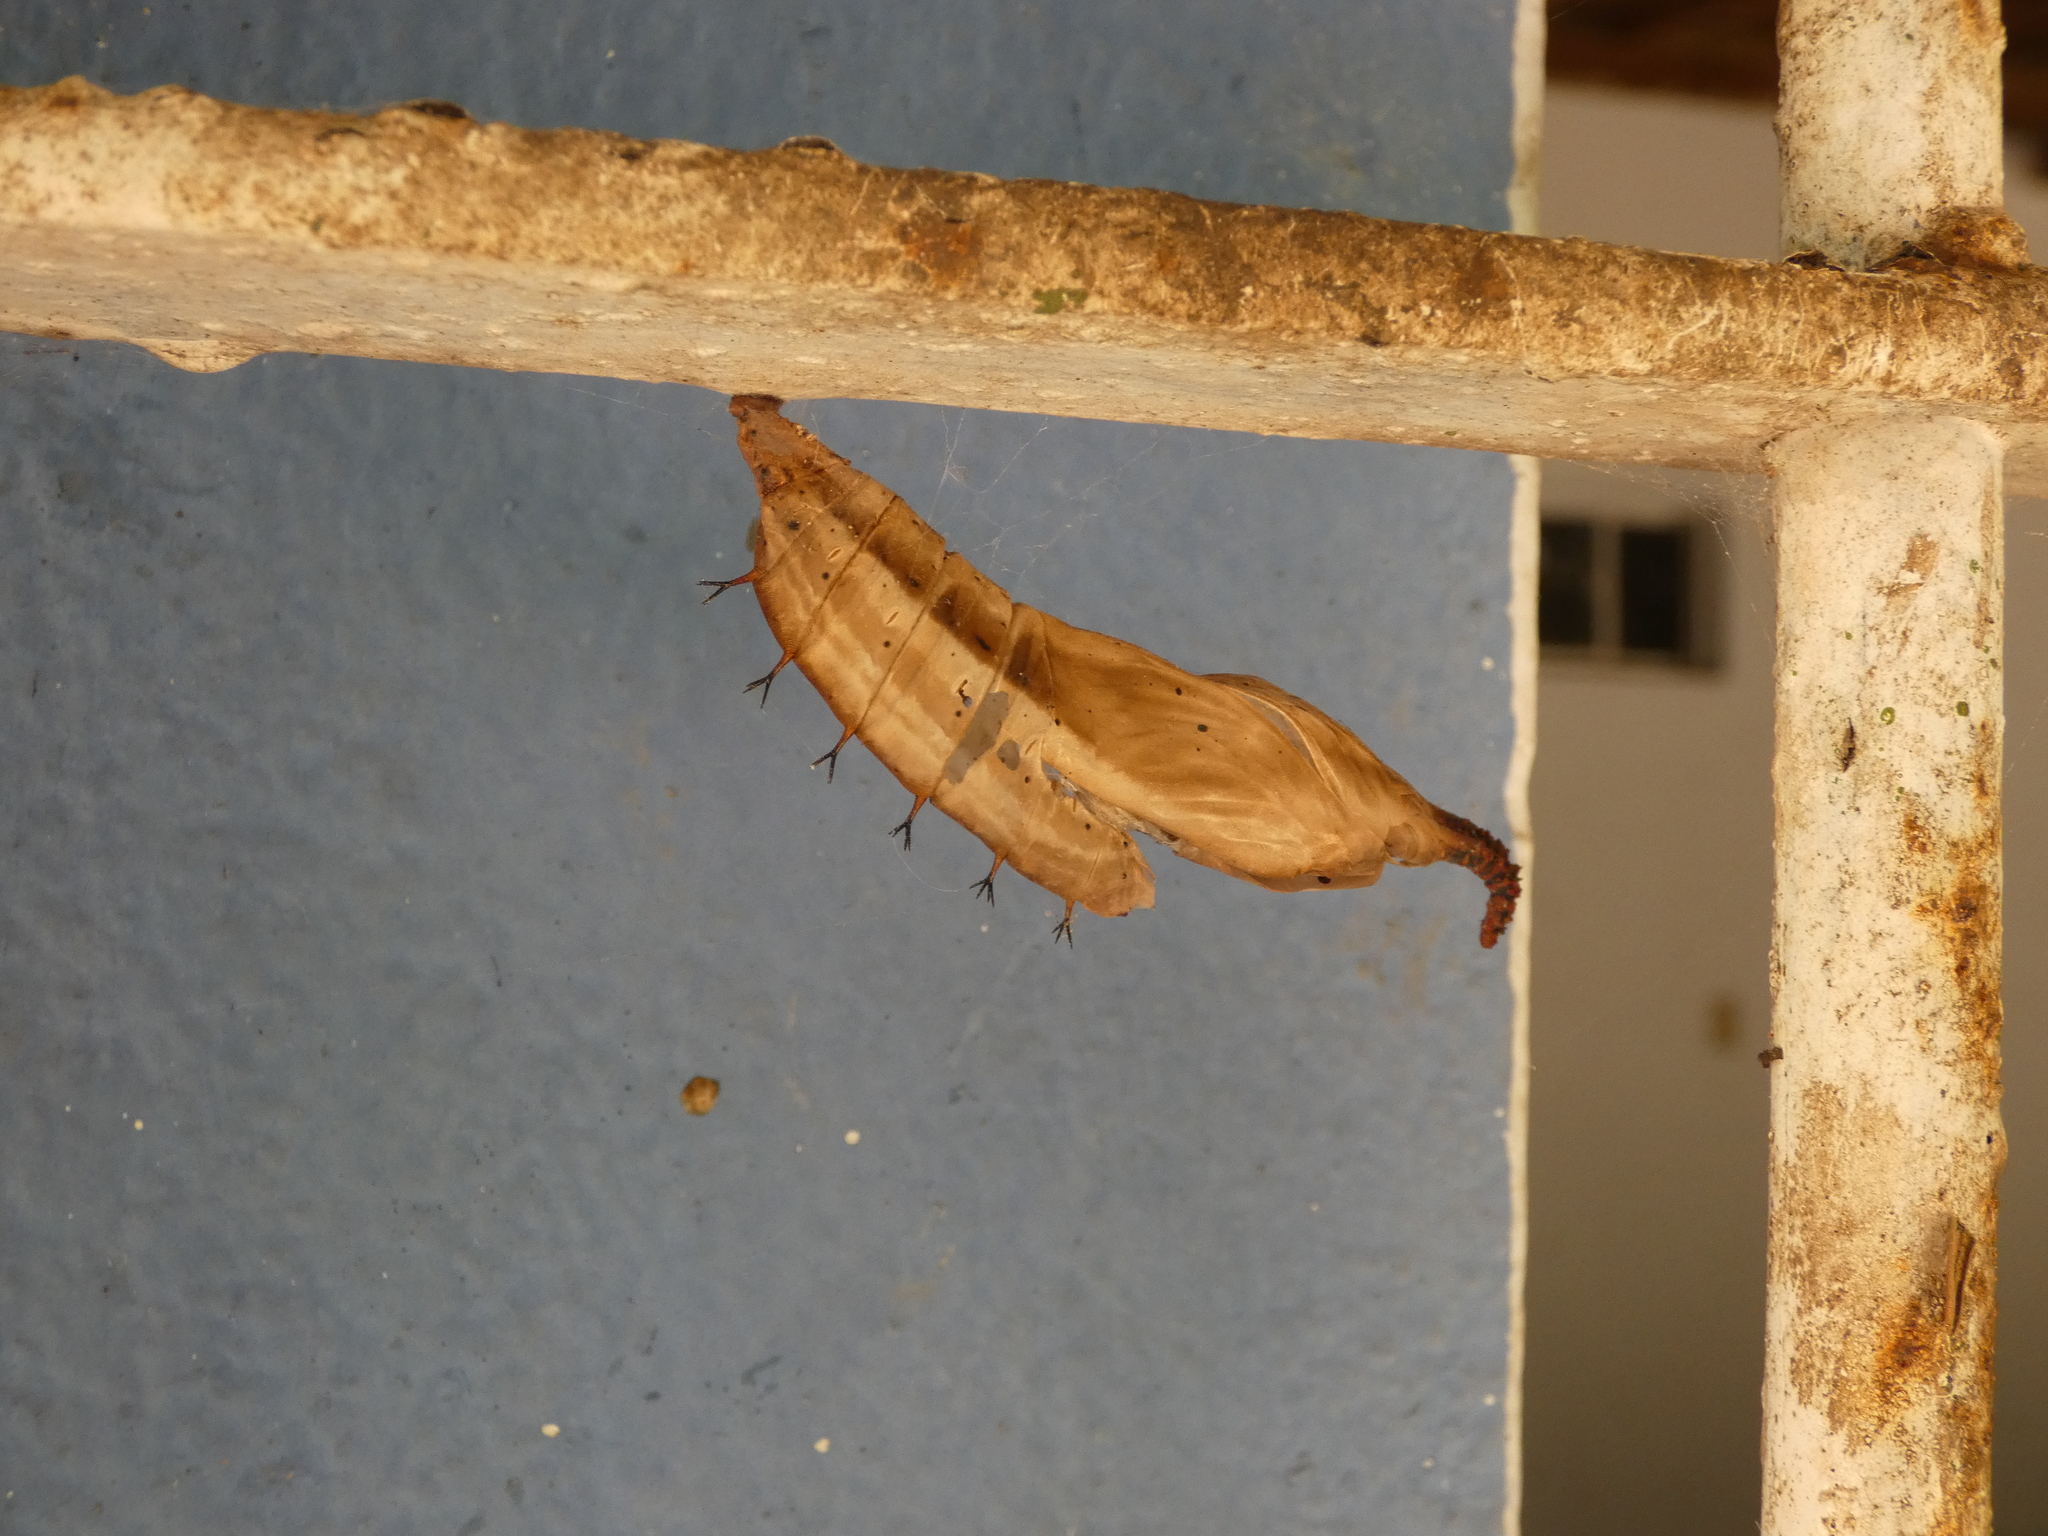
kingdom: Animalia
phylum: Arthropoda
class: Insecta
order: Lepidoptera
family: Nymphalidae
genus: Historis
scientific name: Historis odius
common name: Orion cecropian
